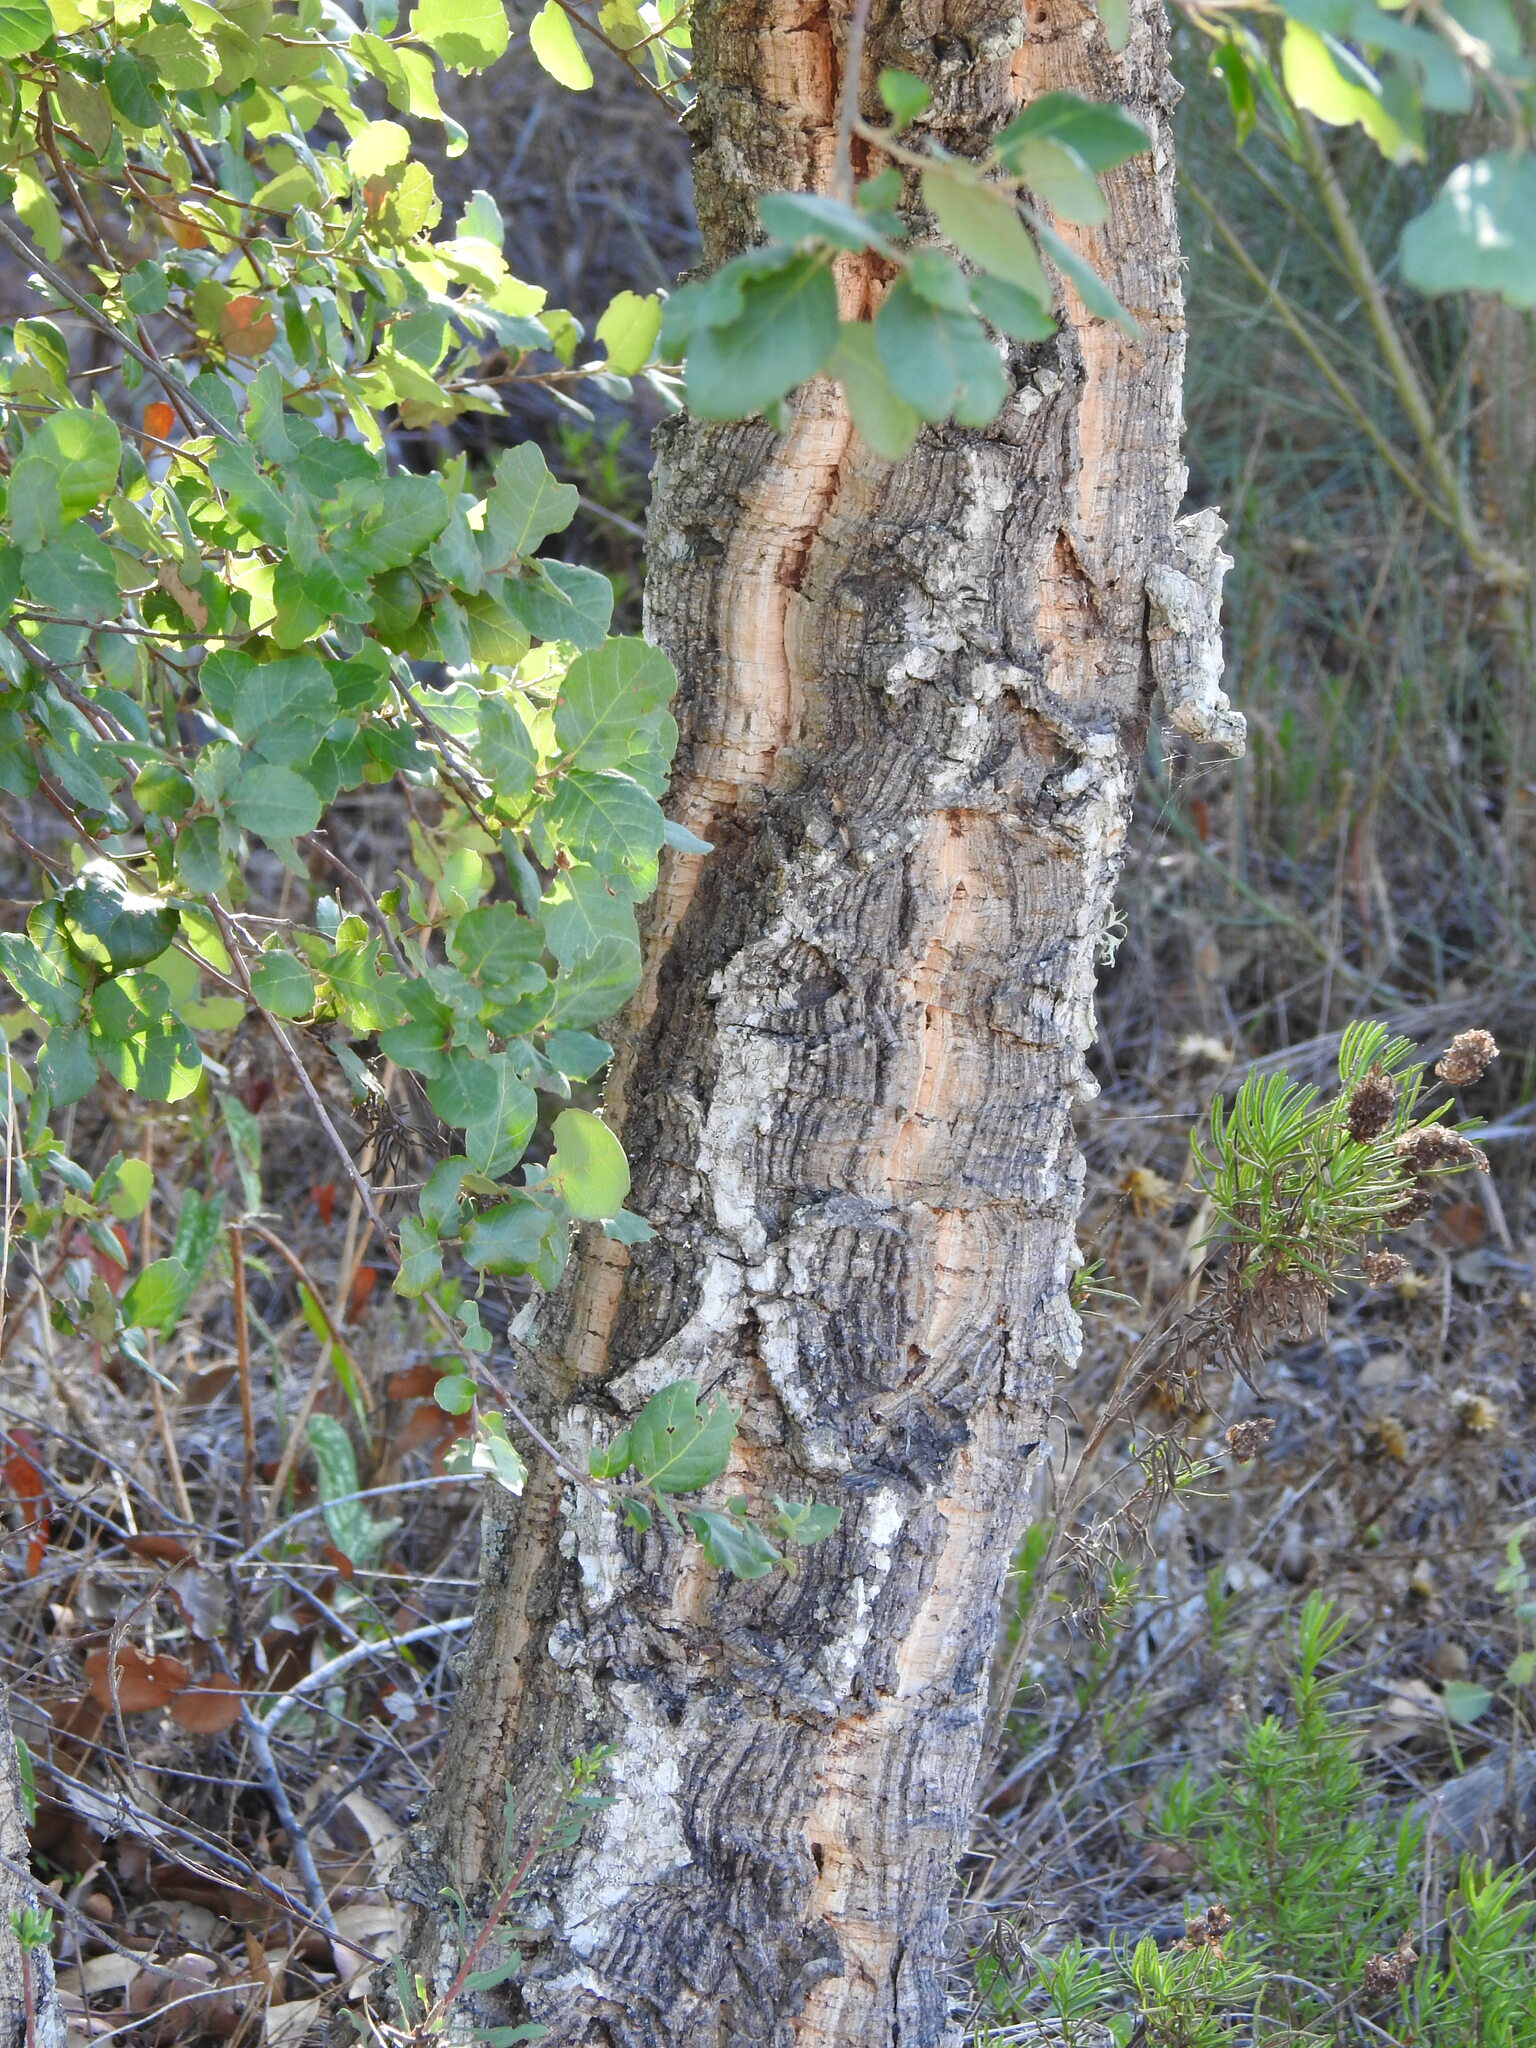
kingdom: Plantae
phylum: Tracheophyta
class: Magnoliopsida
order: Fagales
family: Fagaceae
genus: Quercus
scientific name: Quercus suber
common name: Cork oak
